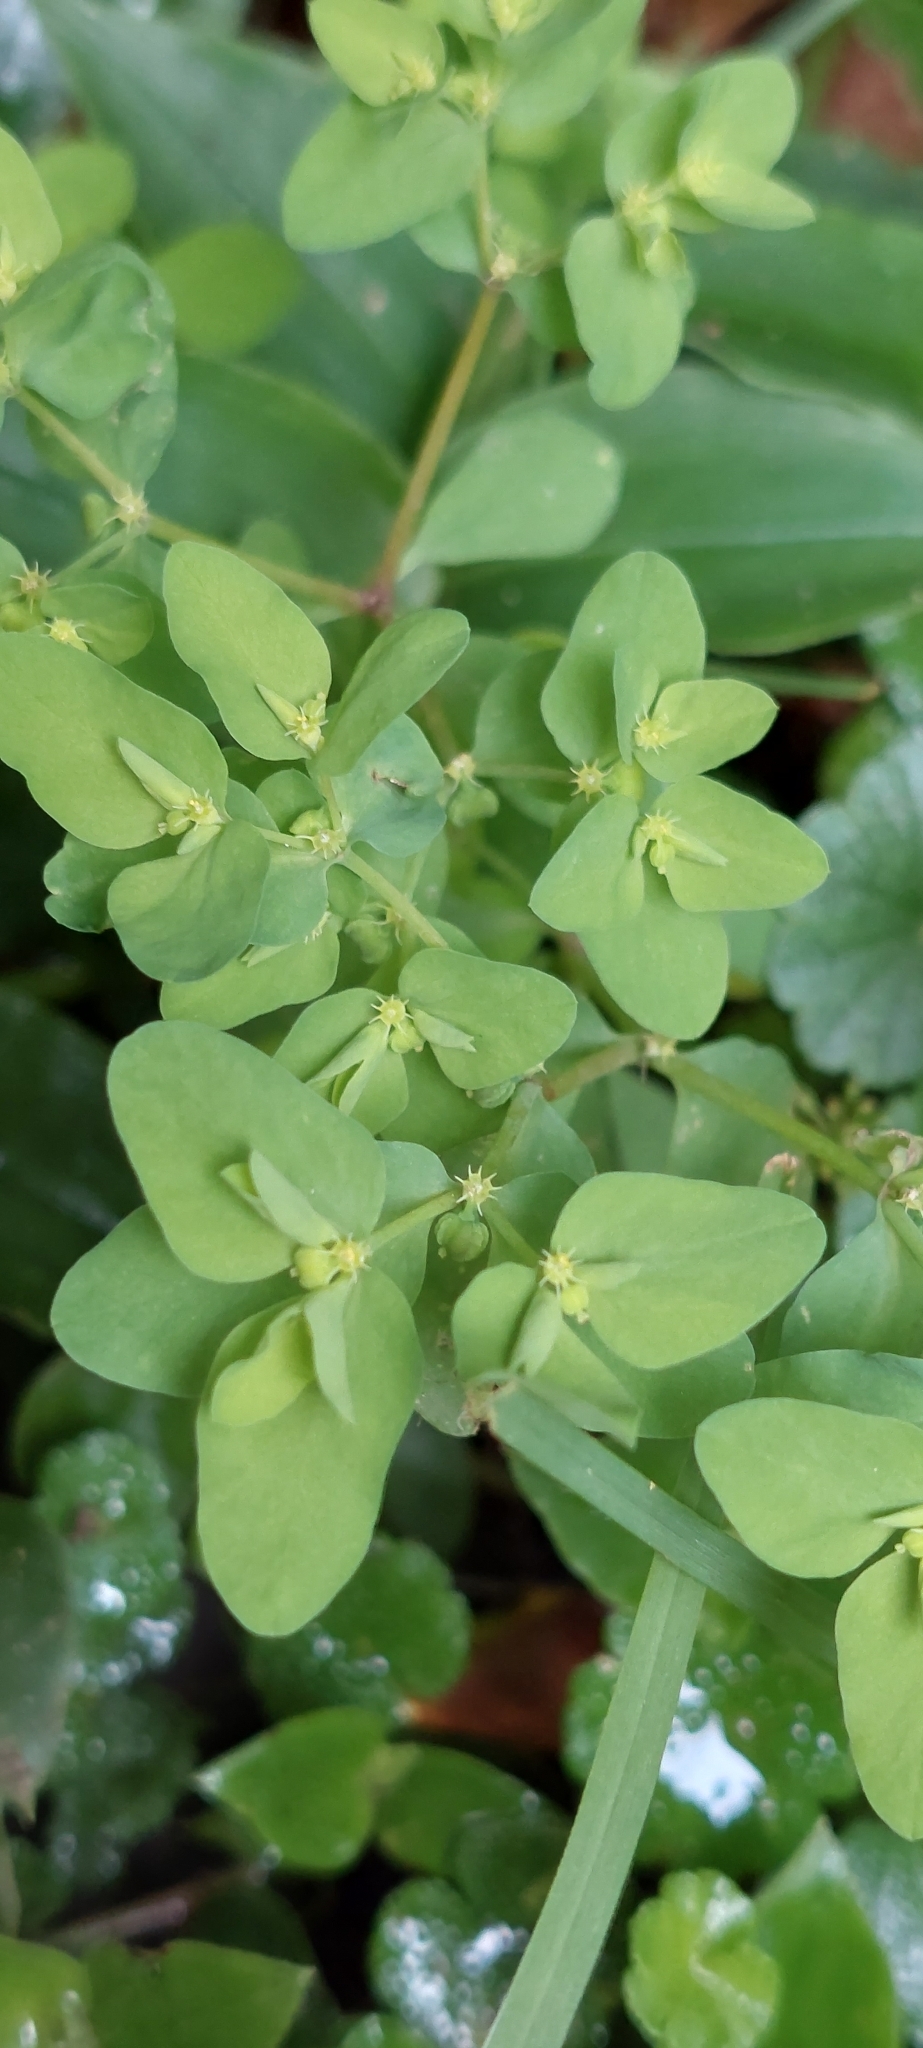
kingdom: Plantae
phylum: Tracheophyta
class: Magnoliopsida
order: Malpighiales
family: Euphorbiaceae
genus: Euphorbia
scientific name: Euphorbia peplus
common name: Petty spurge
